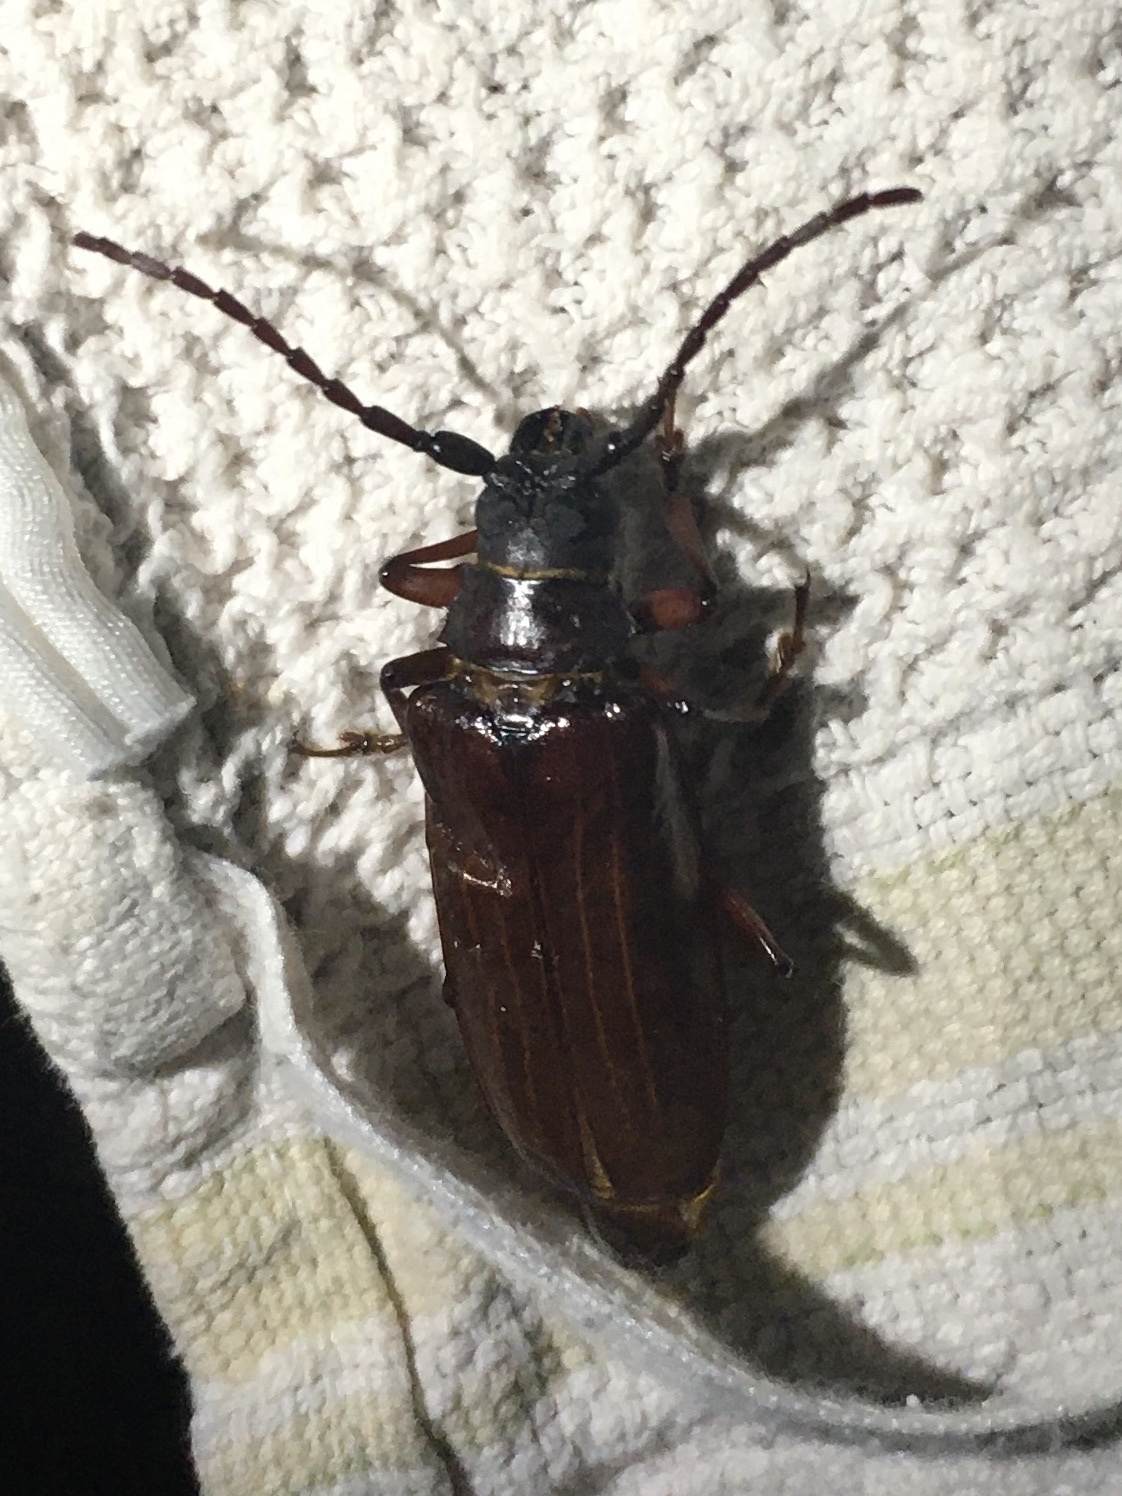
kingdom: Animalia
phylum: Arthropoda
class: Insecta
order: Coleoptera
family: Cerambycidae
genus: Orthosoma
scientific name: Orthosoma brunneum
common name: Brown prionid beetle
